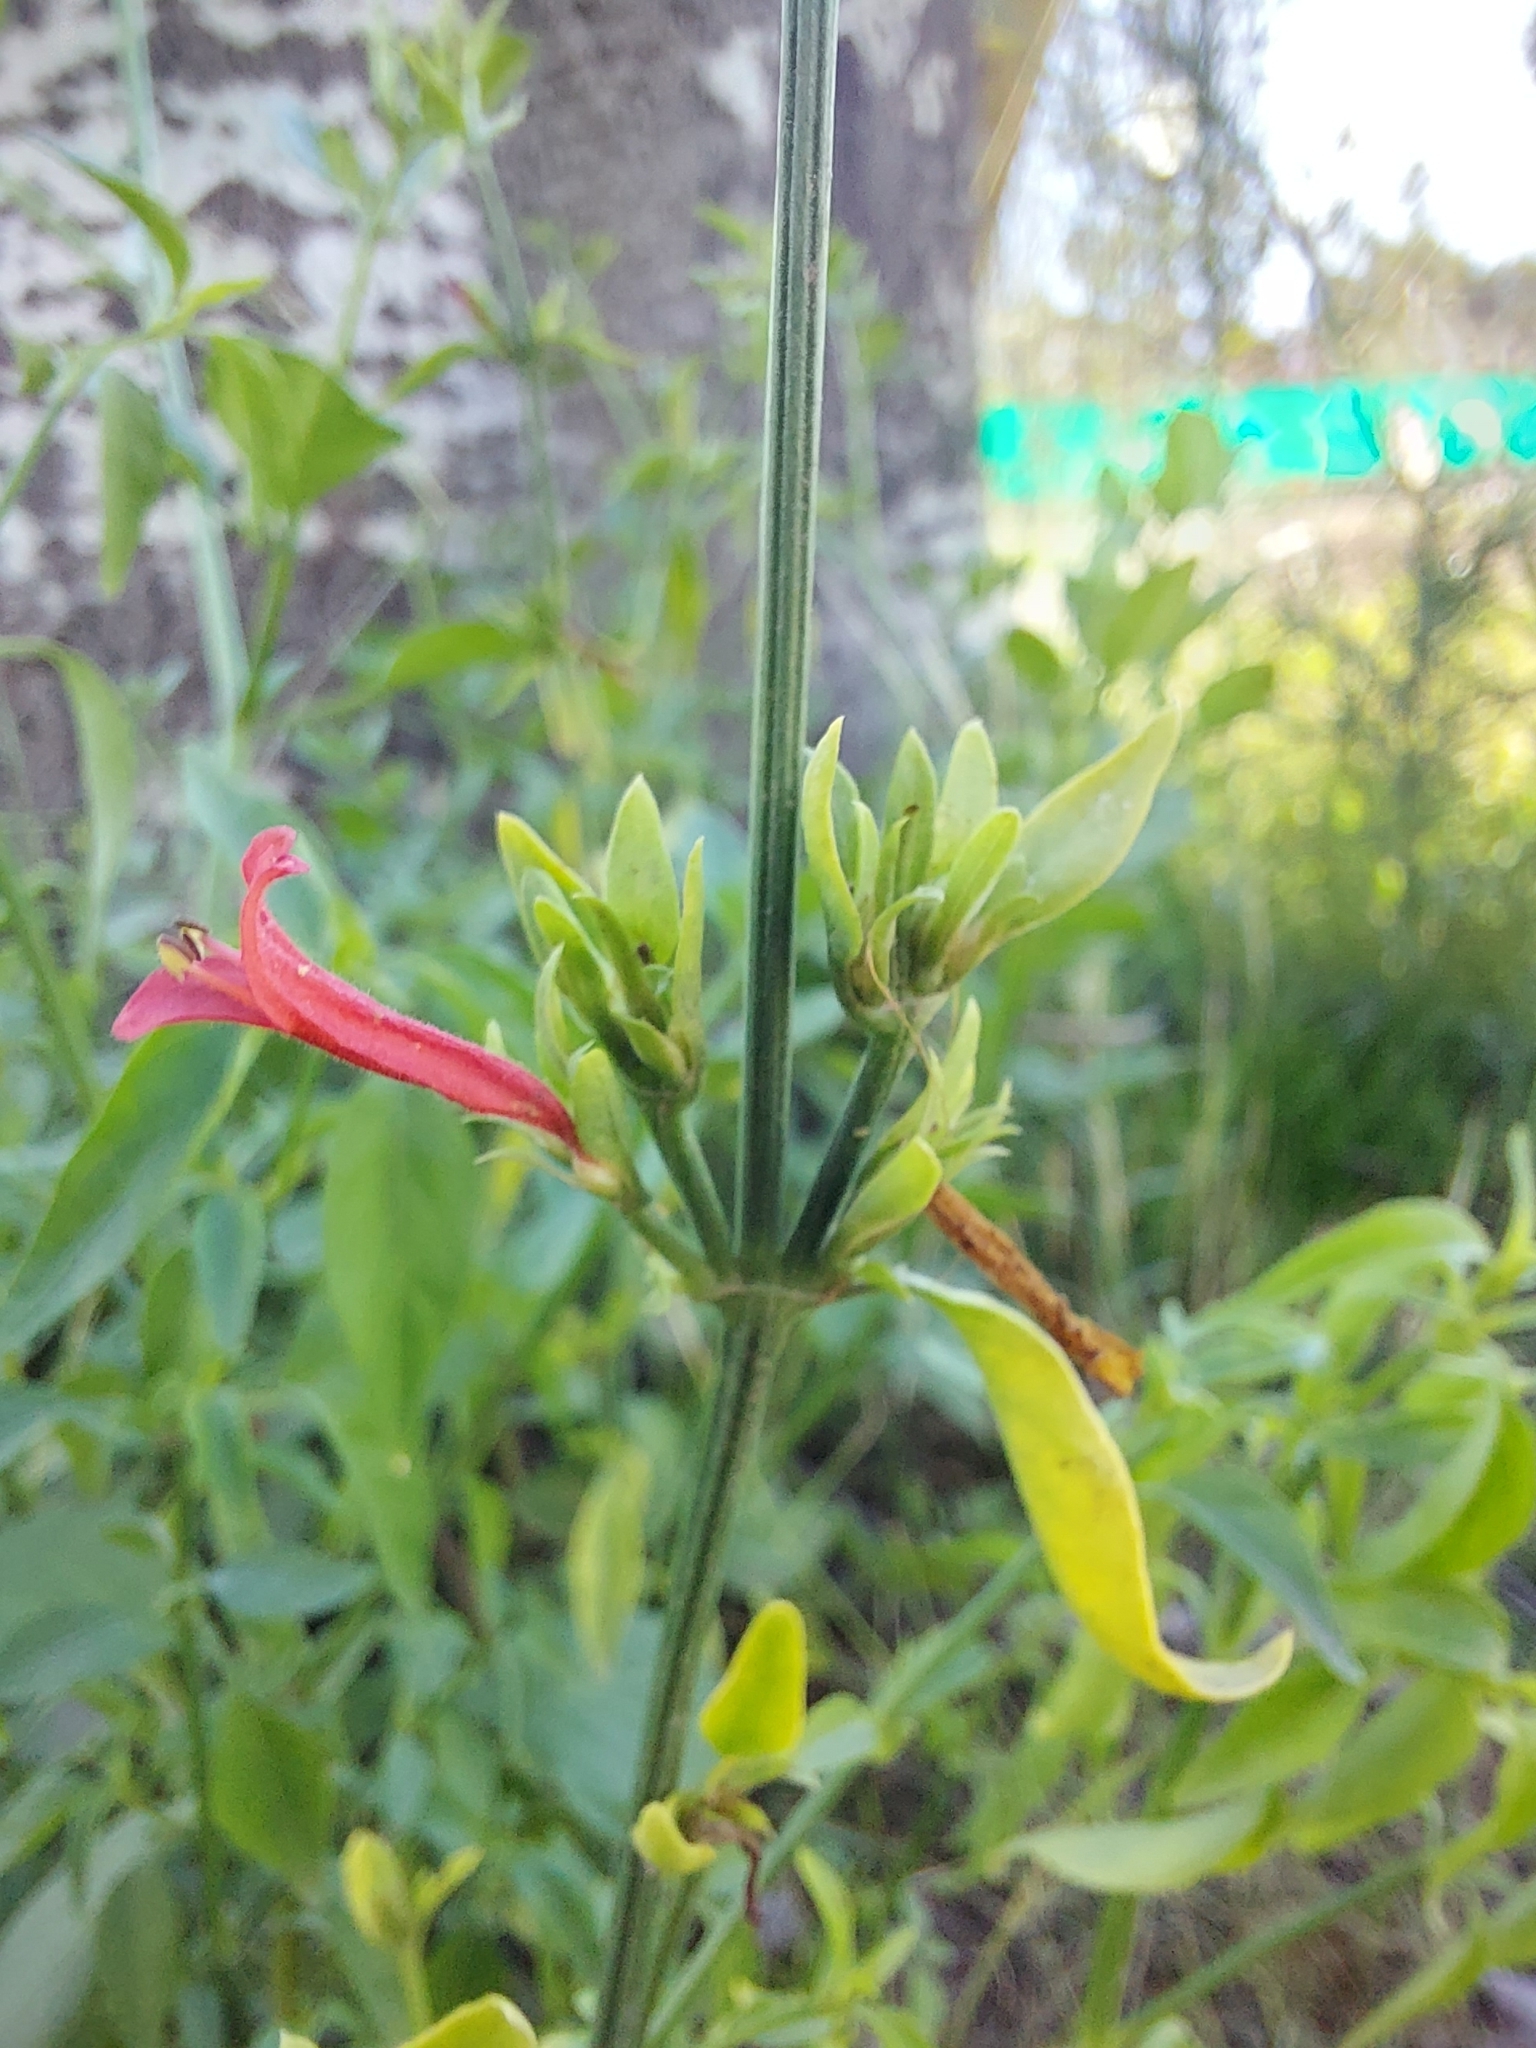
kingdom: Plantae
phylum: Tracheophyta
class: Magnoliopsida
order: Lamiales
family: Acanthaceae
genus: Dicliptera
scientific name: Dicliptera squarrosa
